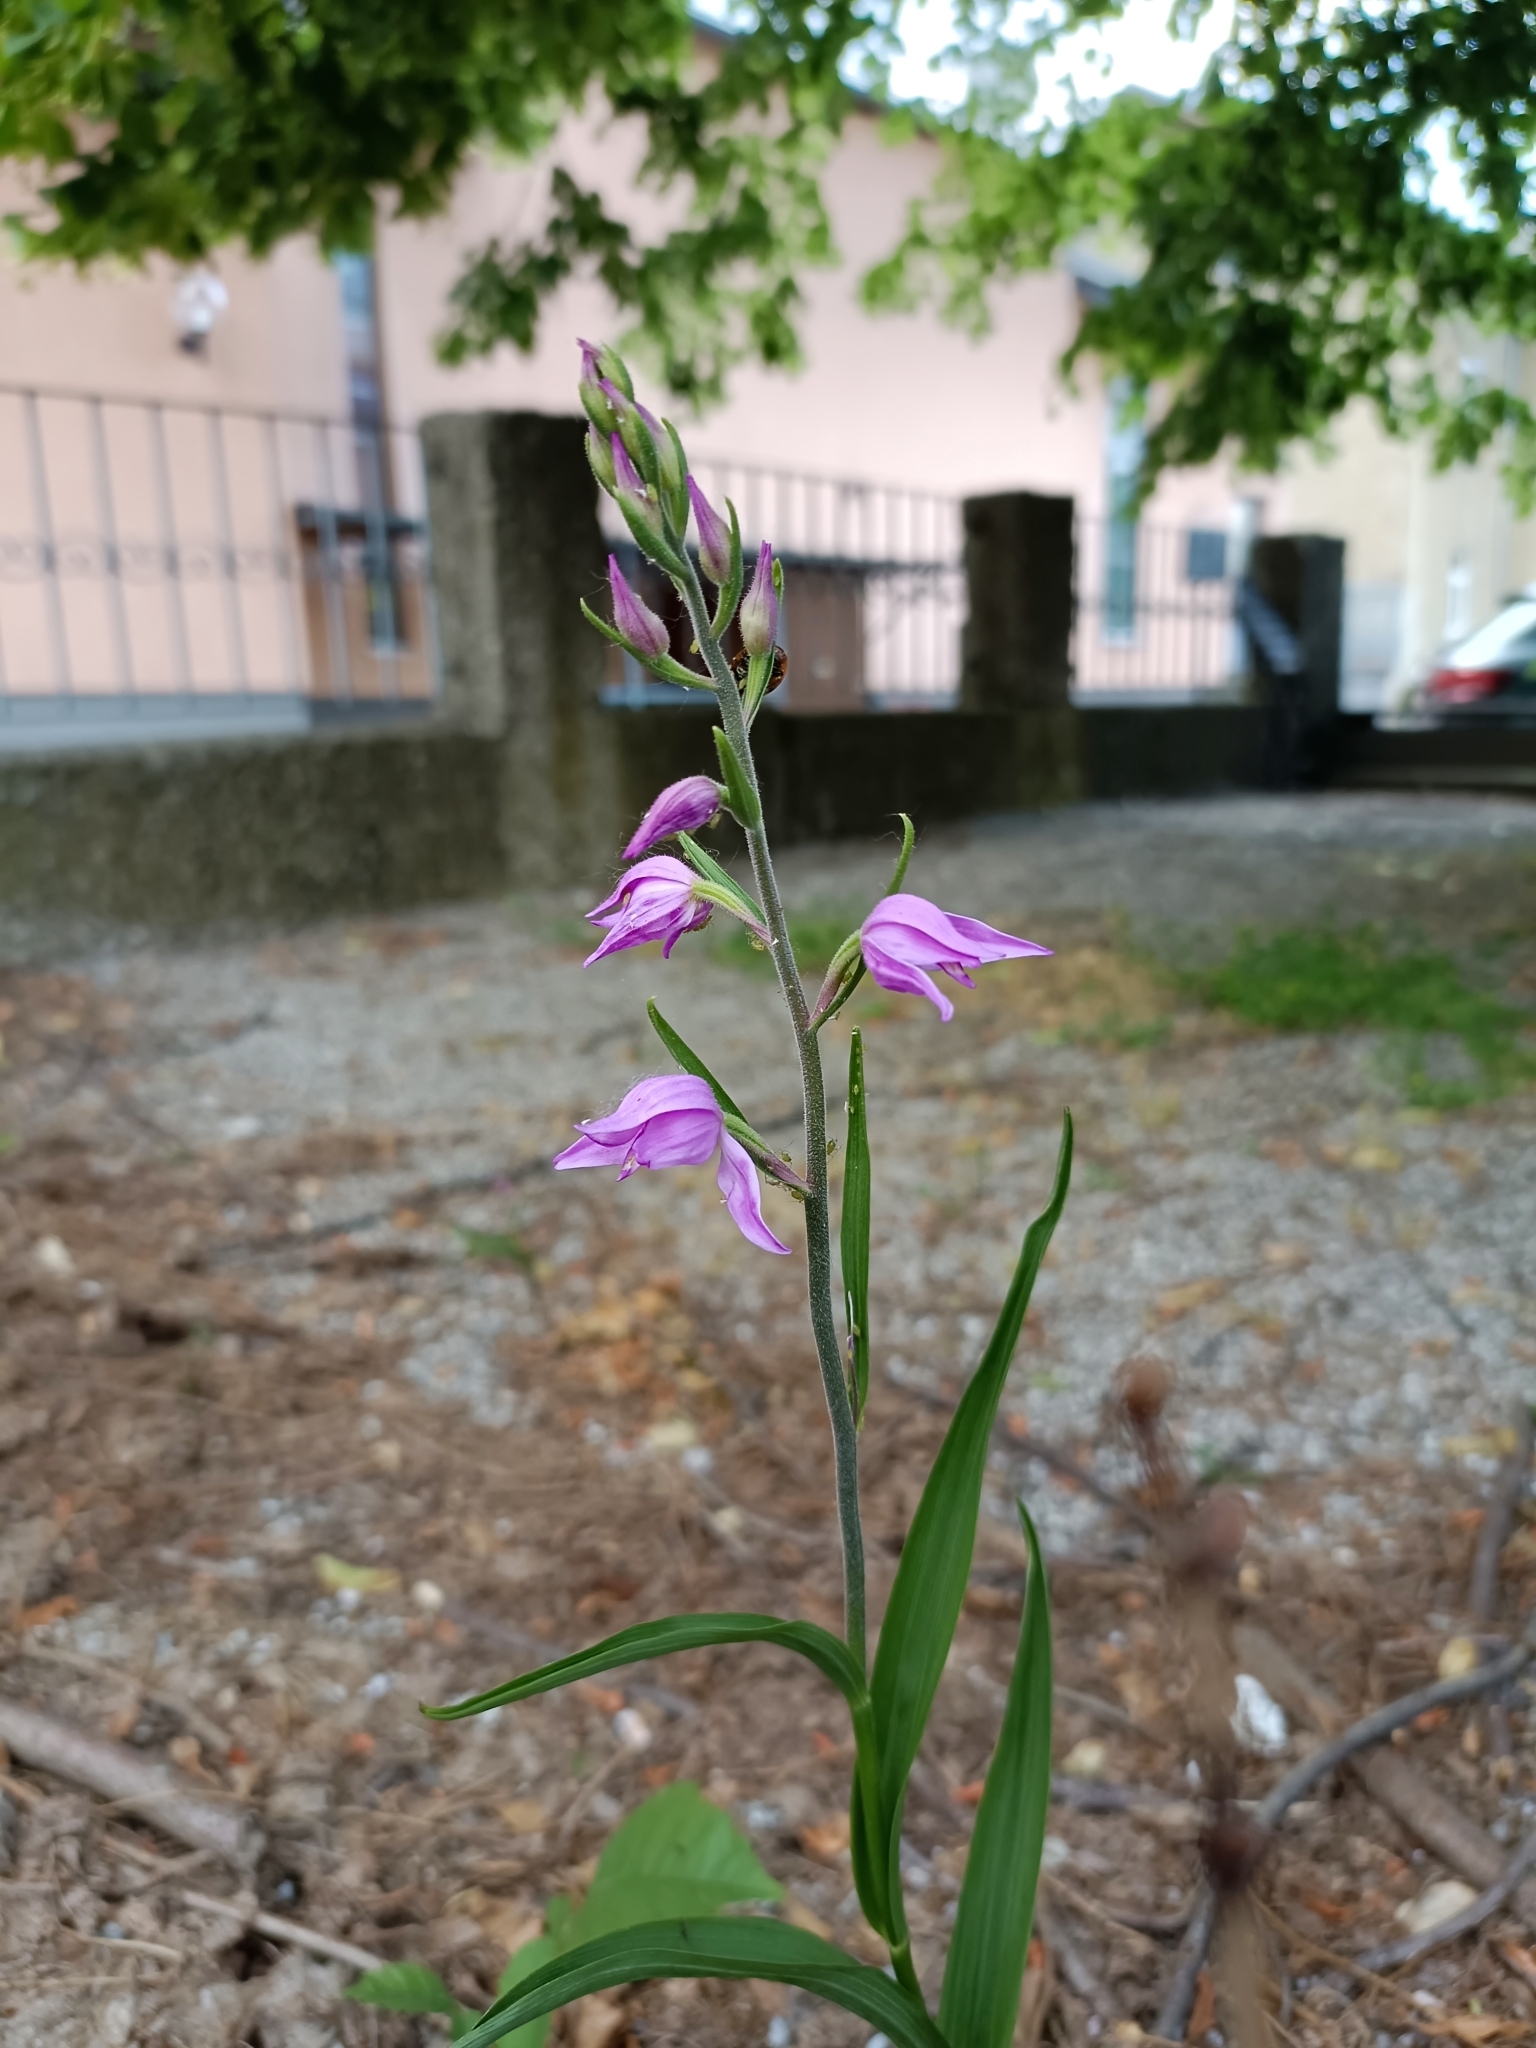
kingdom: Plantae
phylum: Tracheophyta
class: Liliopsida
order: Asparagales
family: Orchidaceae
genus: Cephalanthera
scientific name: Cephalanthera rubra
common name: Red helleborine
